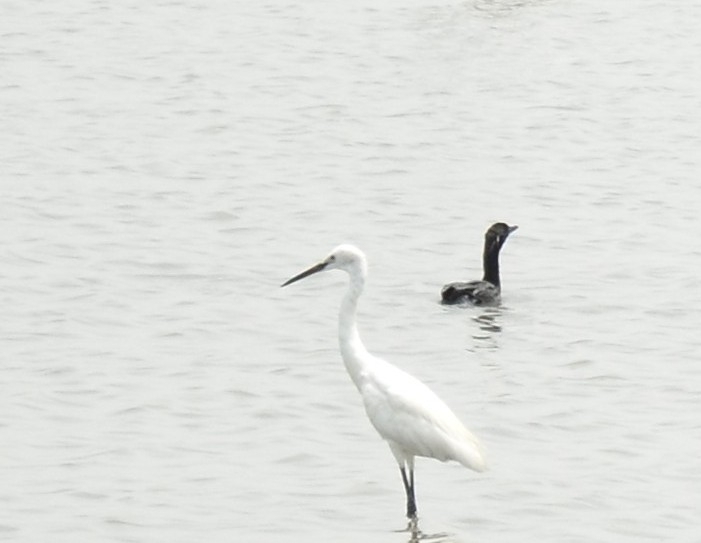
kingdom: Animalia
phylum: Chordata
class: Aves
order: Pelecaniformes
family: Ardeidae
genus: Egretta
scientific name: Egretta garzetta
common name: Little egret
